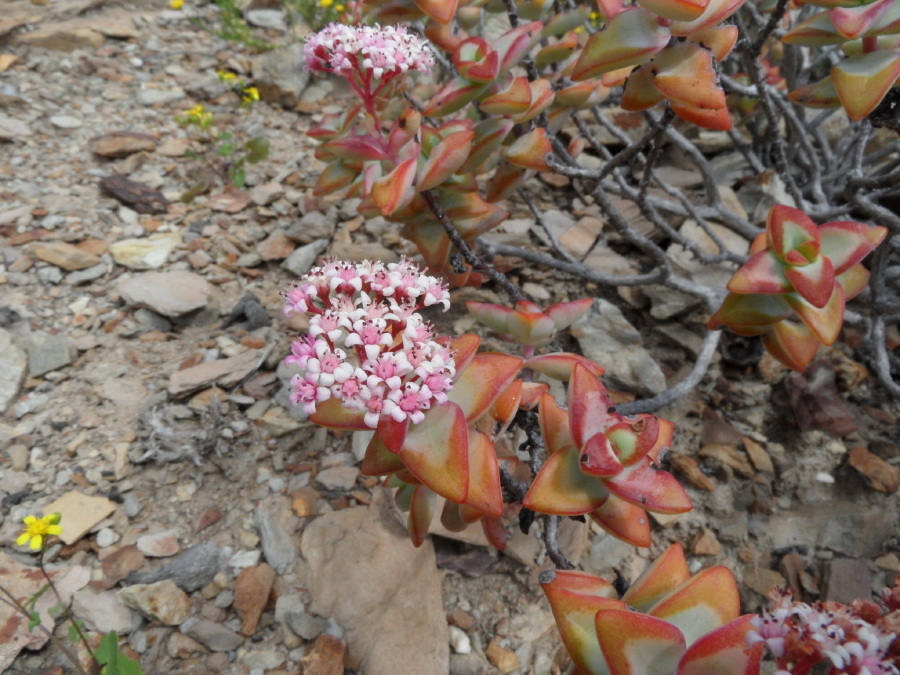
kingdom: Plantae
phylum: Tracheophyta
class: Magnoliopsida
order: Saxifragales
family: Crassulaceae
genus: Crassula
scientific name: Crassula rupestris
